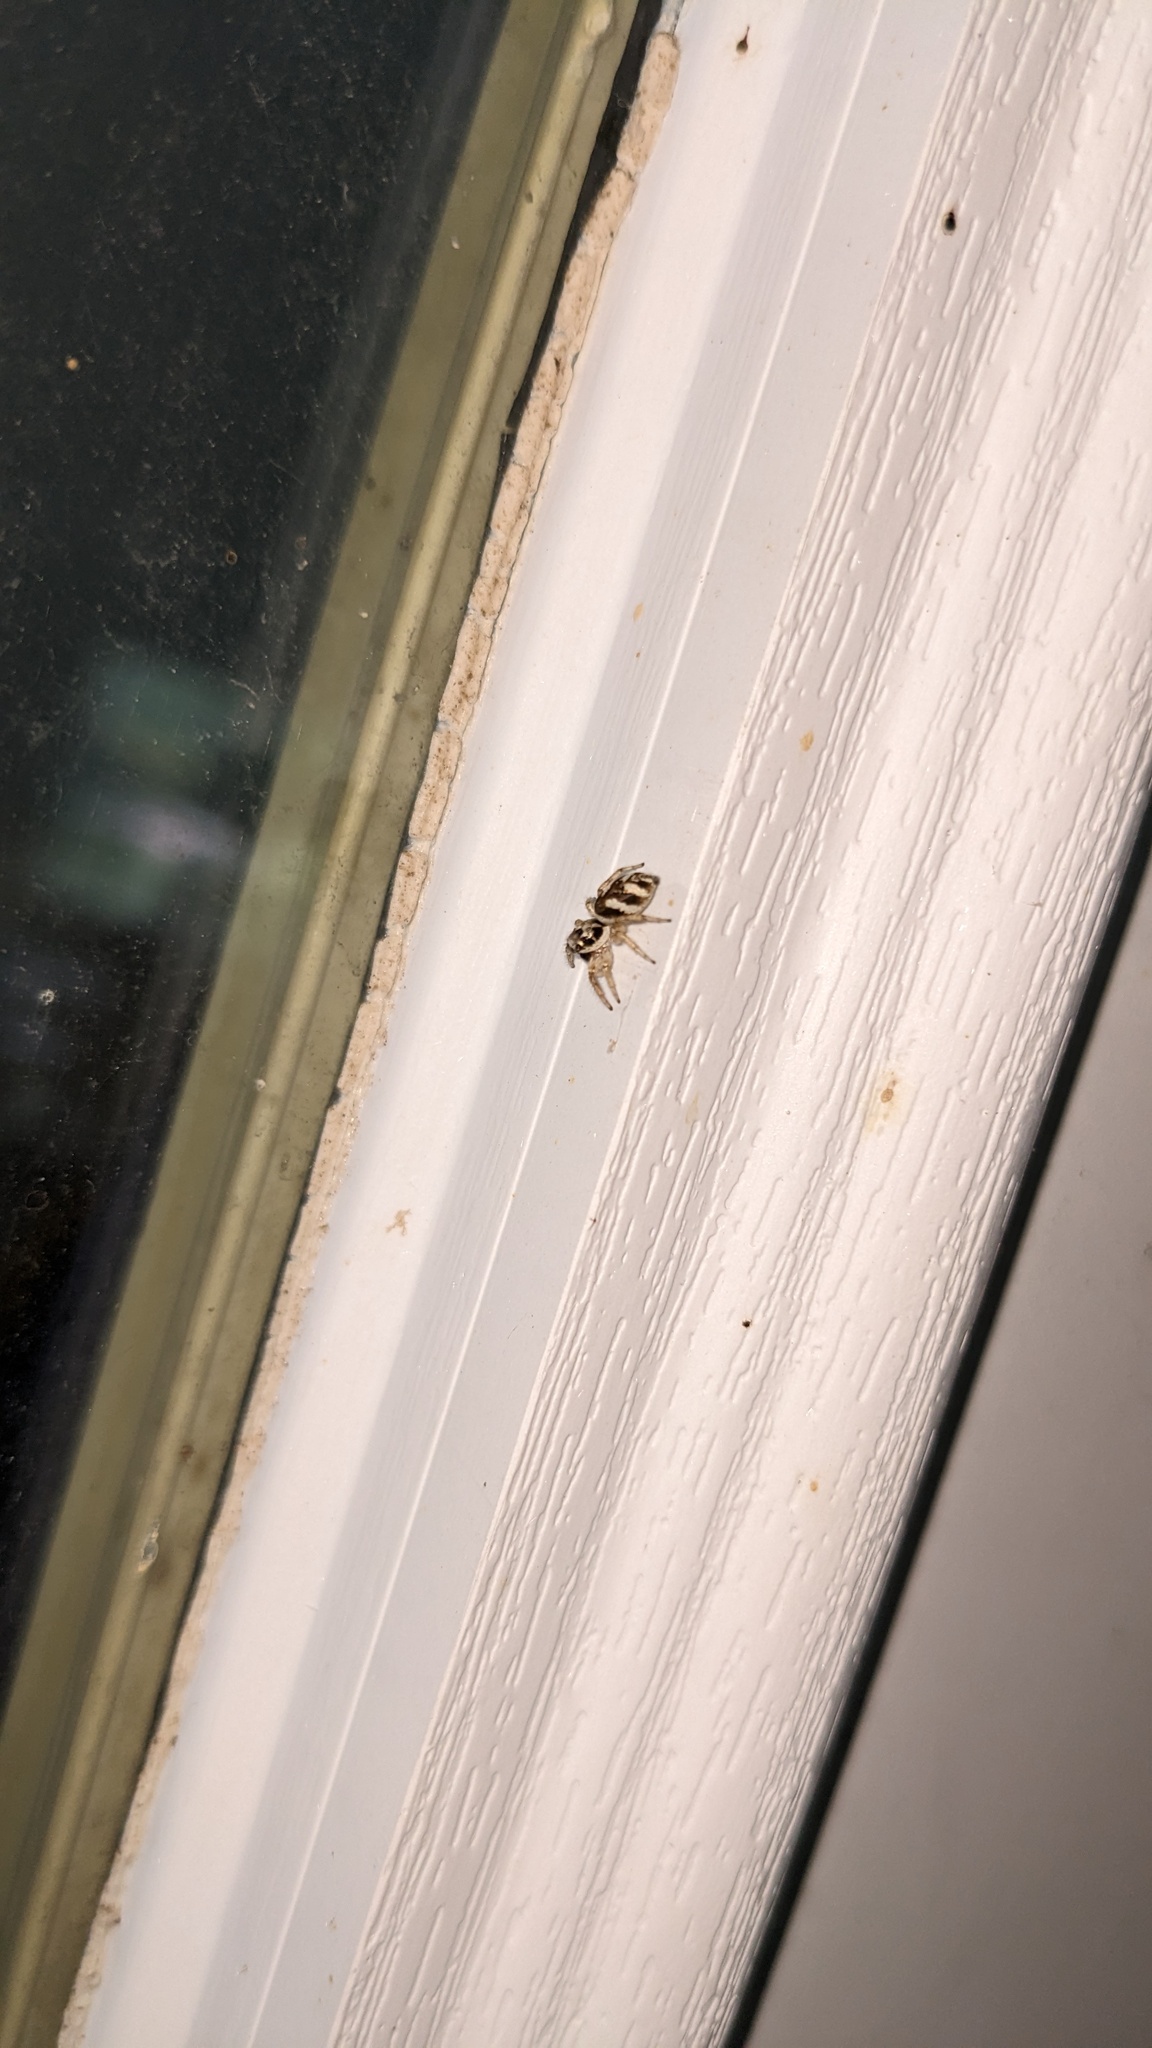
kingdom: Animalia
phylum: Arthropoda
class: Arachnida
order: Araneae
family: Salticidae
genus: Salticus
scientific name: Salticus scenicus
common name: Zebra jumper
